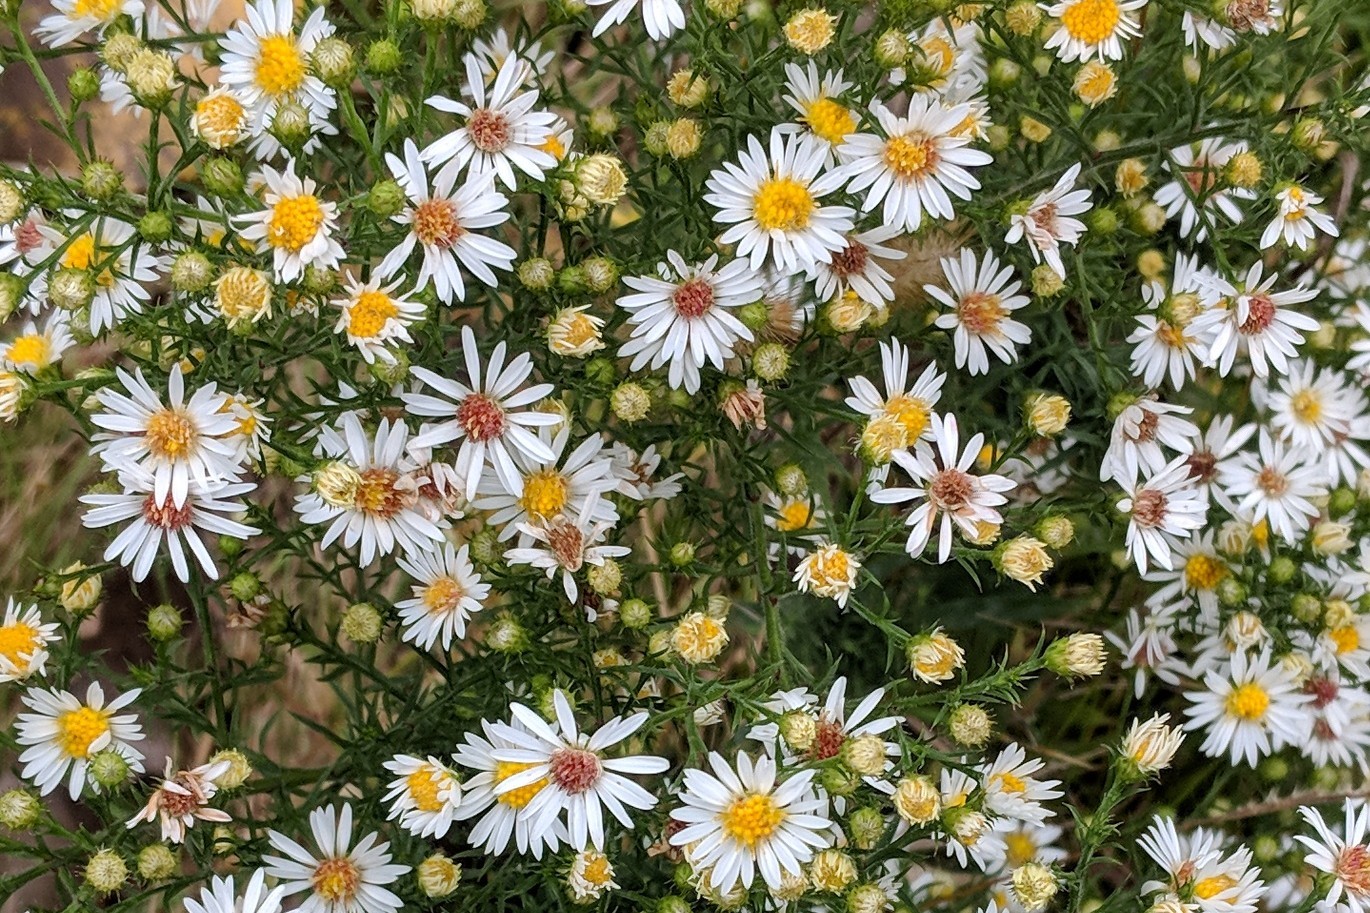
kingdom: Plantae
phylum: Tracheophyta
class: Magnoliopsida
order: Asterales
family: Asteraceae
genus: Symphyotrichum
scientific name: Symphyotrichum pilosum
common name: Awl aster
